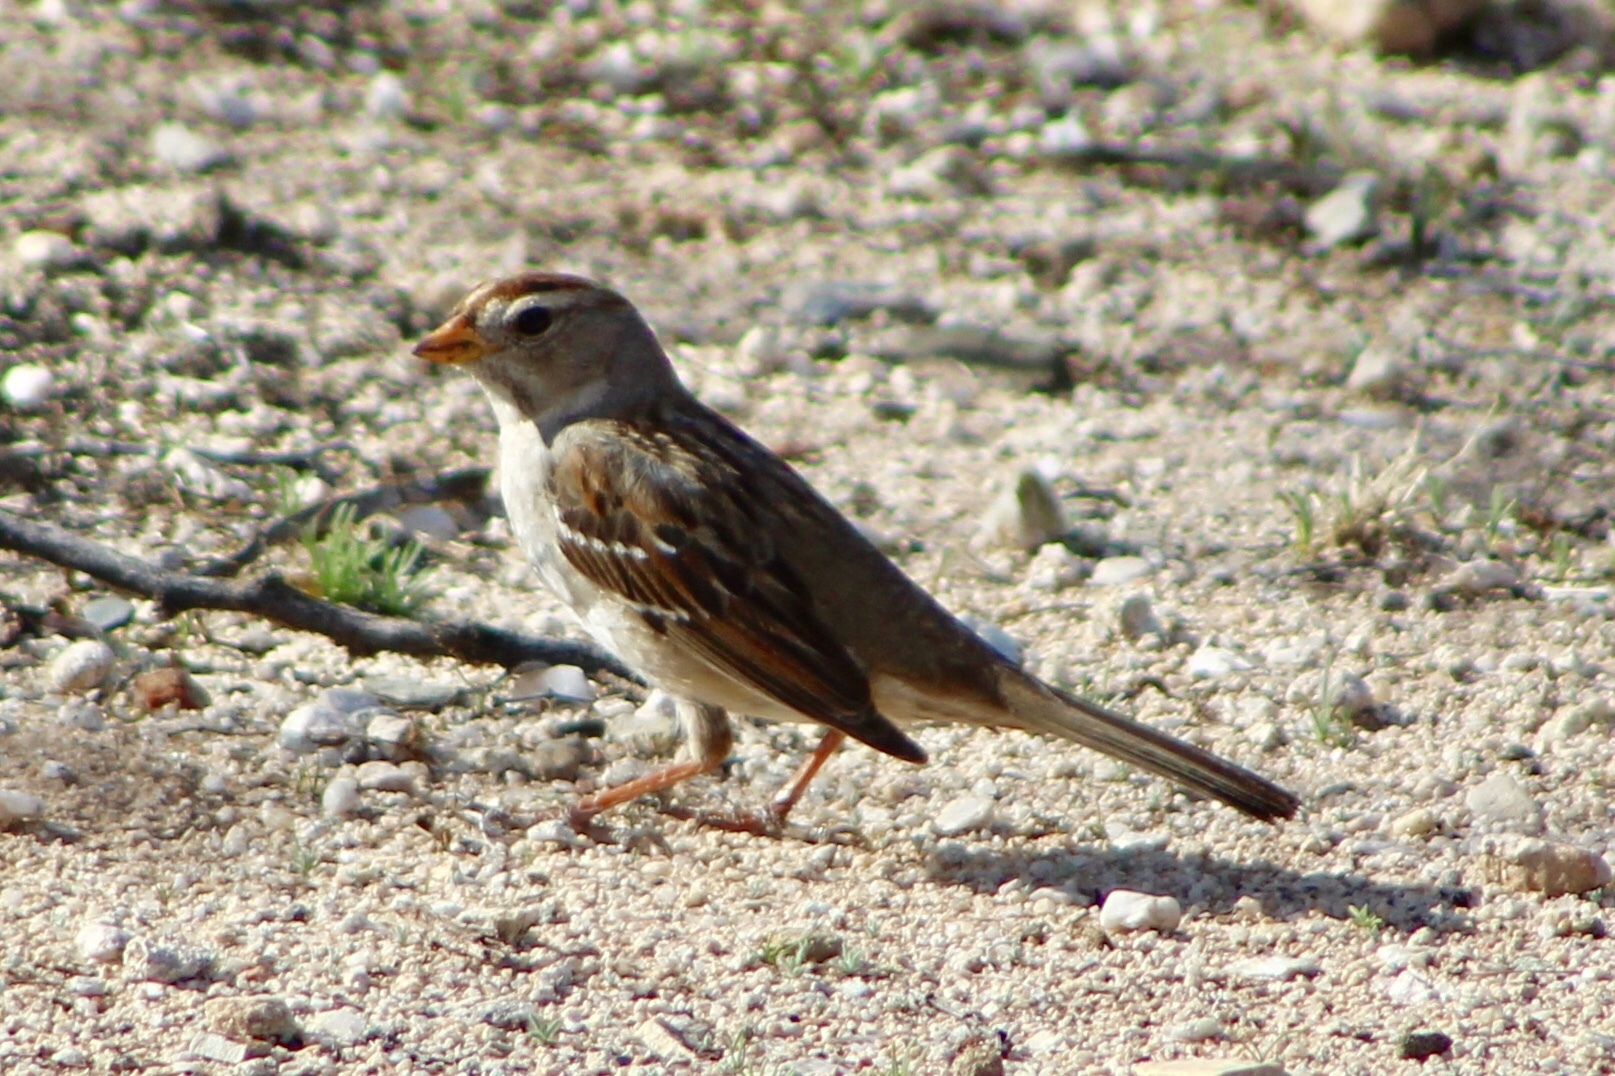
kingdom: Animalia
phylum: Chordata
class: Aves
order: Passeriformes
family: Passerellidae
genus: Zonotrichia
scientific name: Zonotrichia leucophrys
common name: White-crowned sparrow
